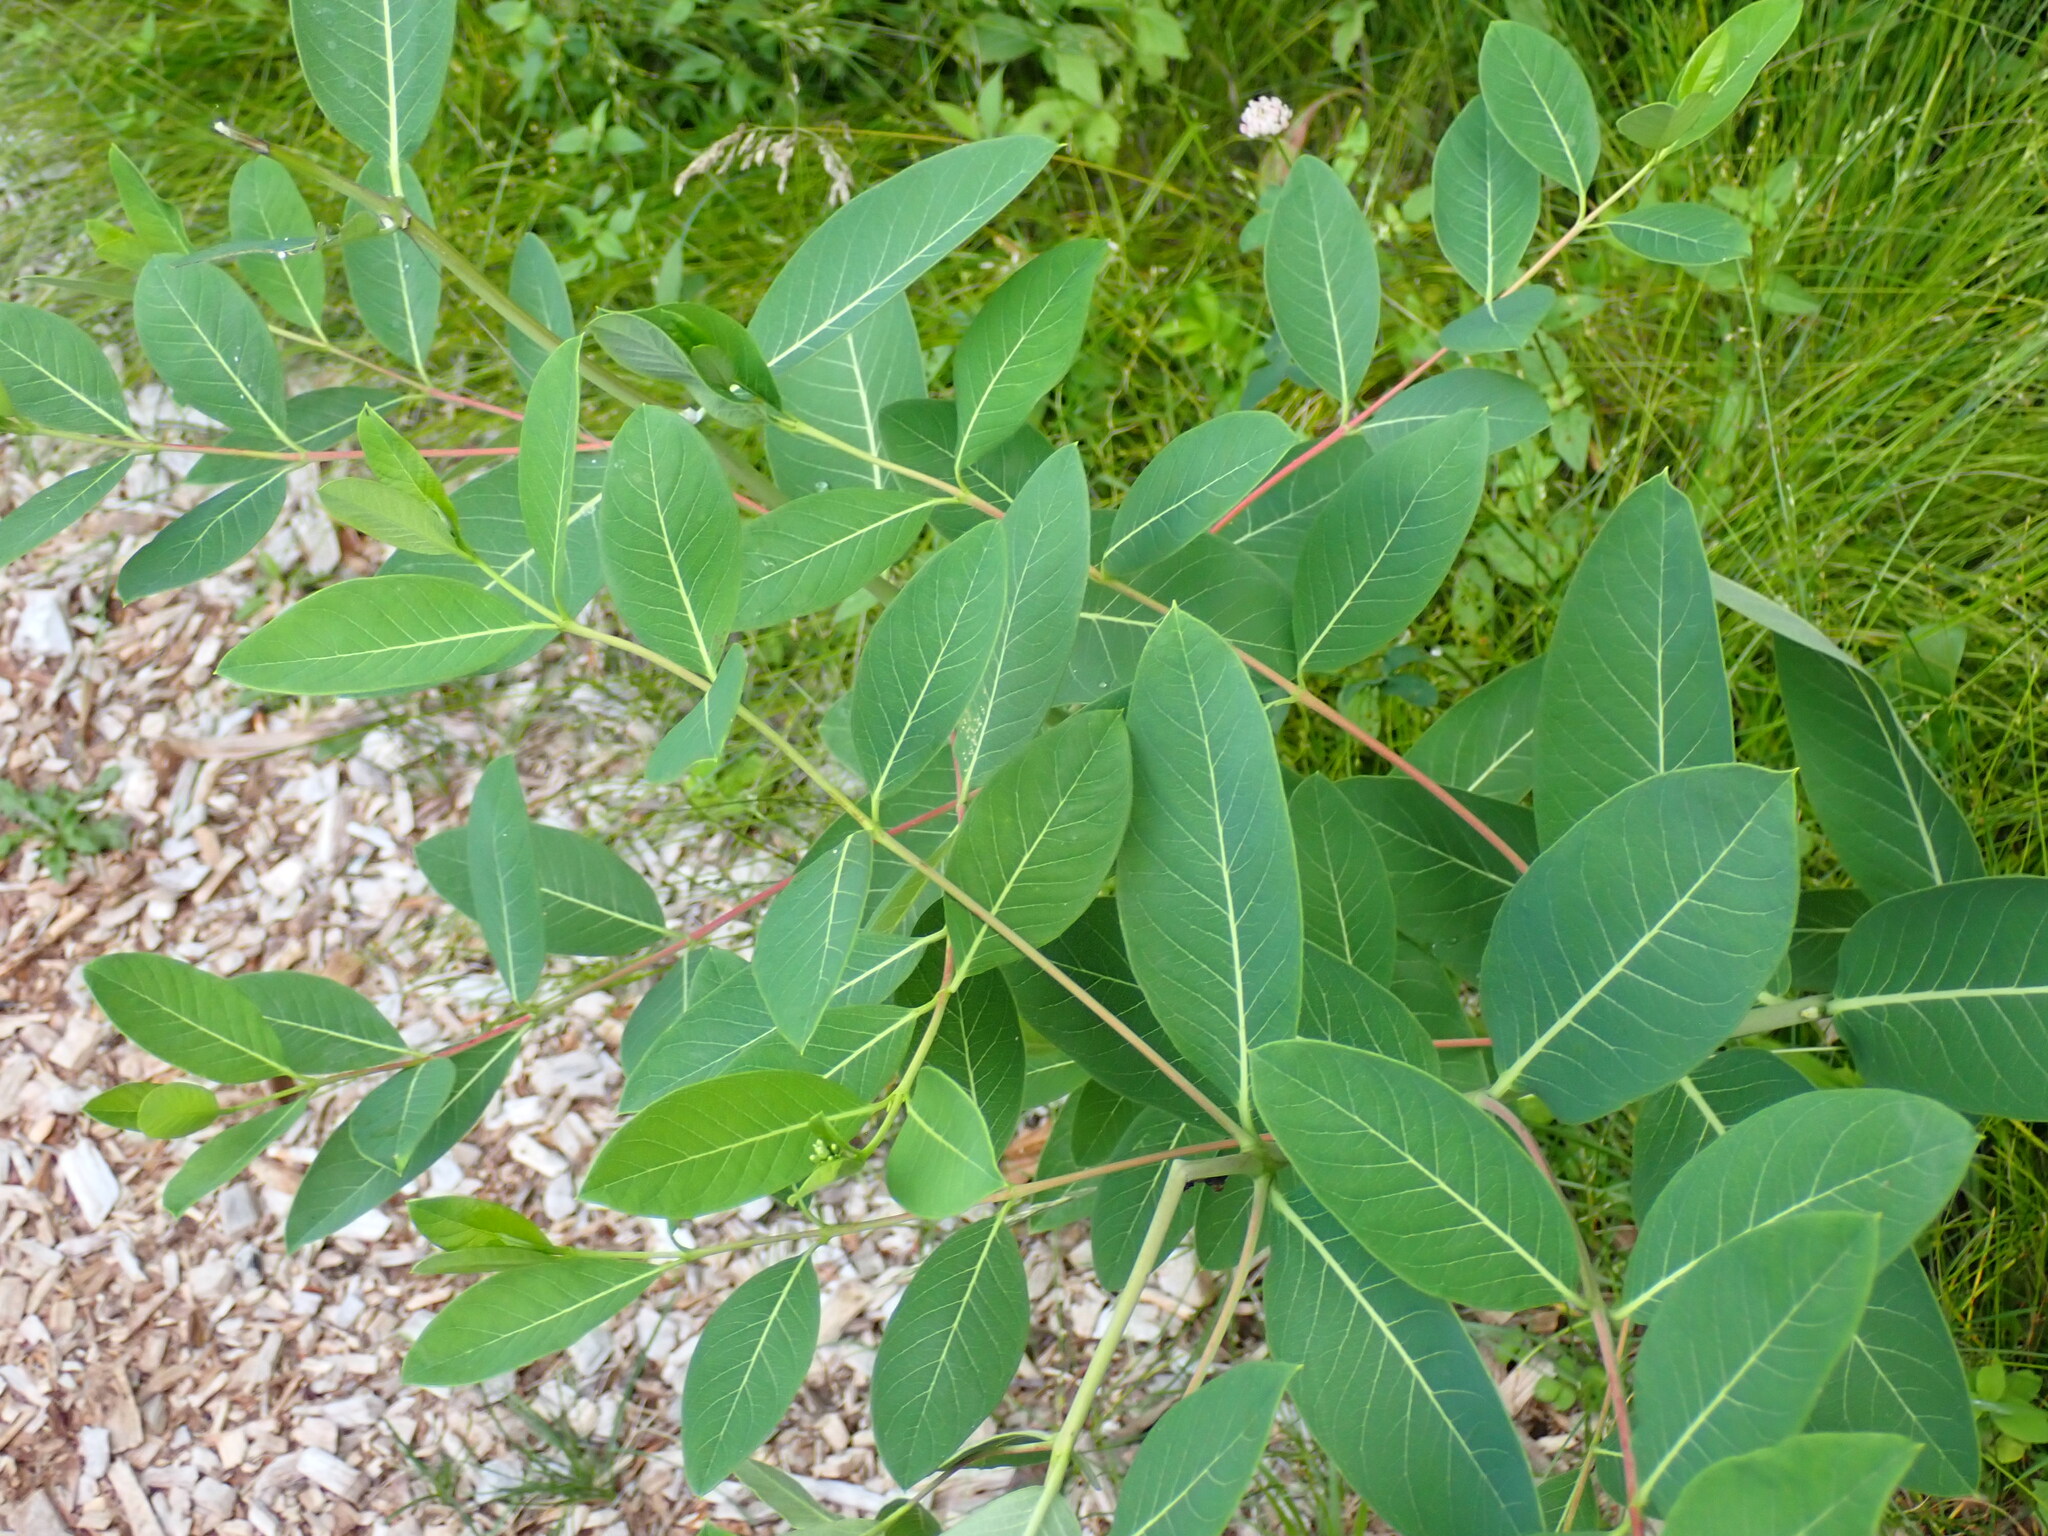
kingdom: Plantae
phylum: Tracheophyta
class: Magnoliopsida
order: Gentianales
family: Apocynaceae
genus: Apocynum
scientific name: Apocynum cannabinum
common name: Hemp dogbane
